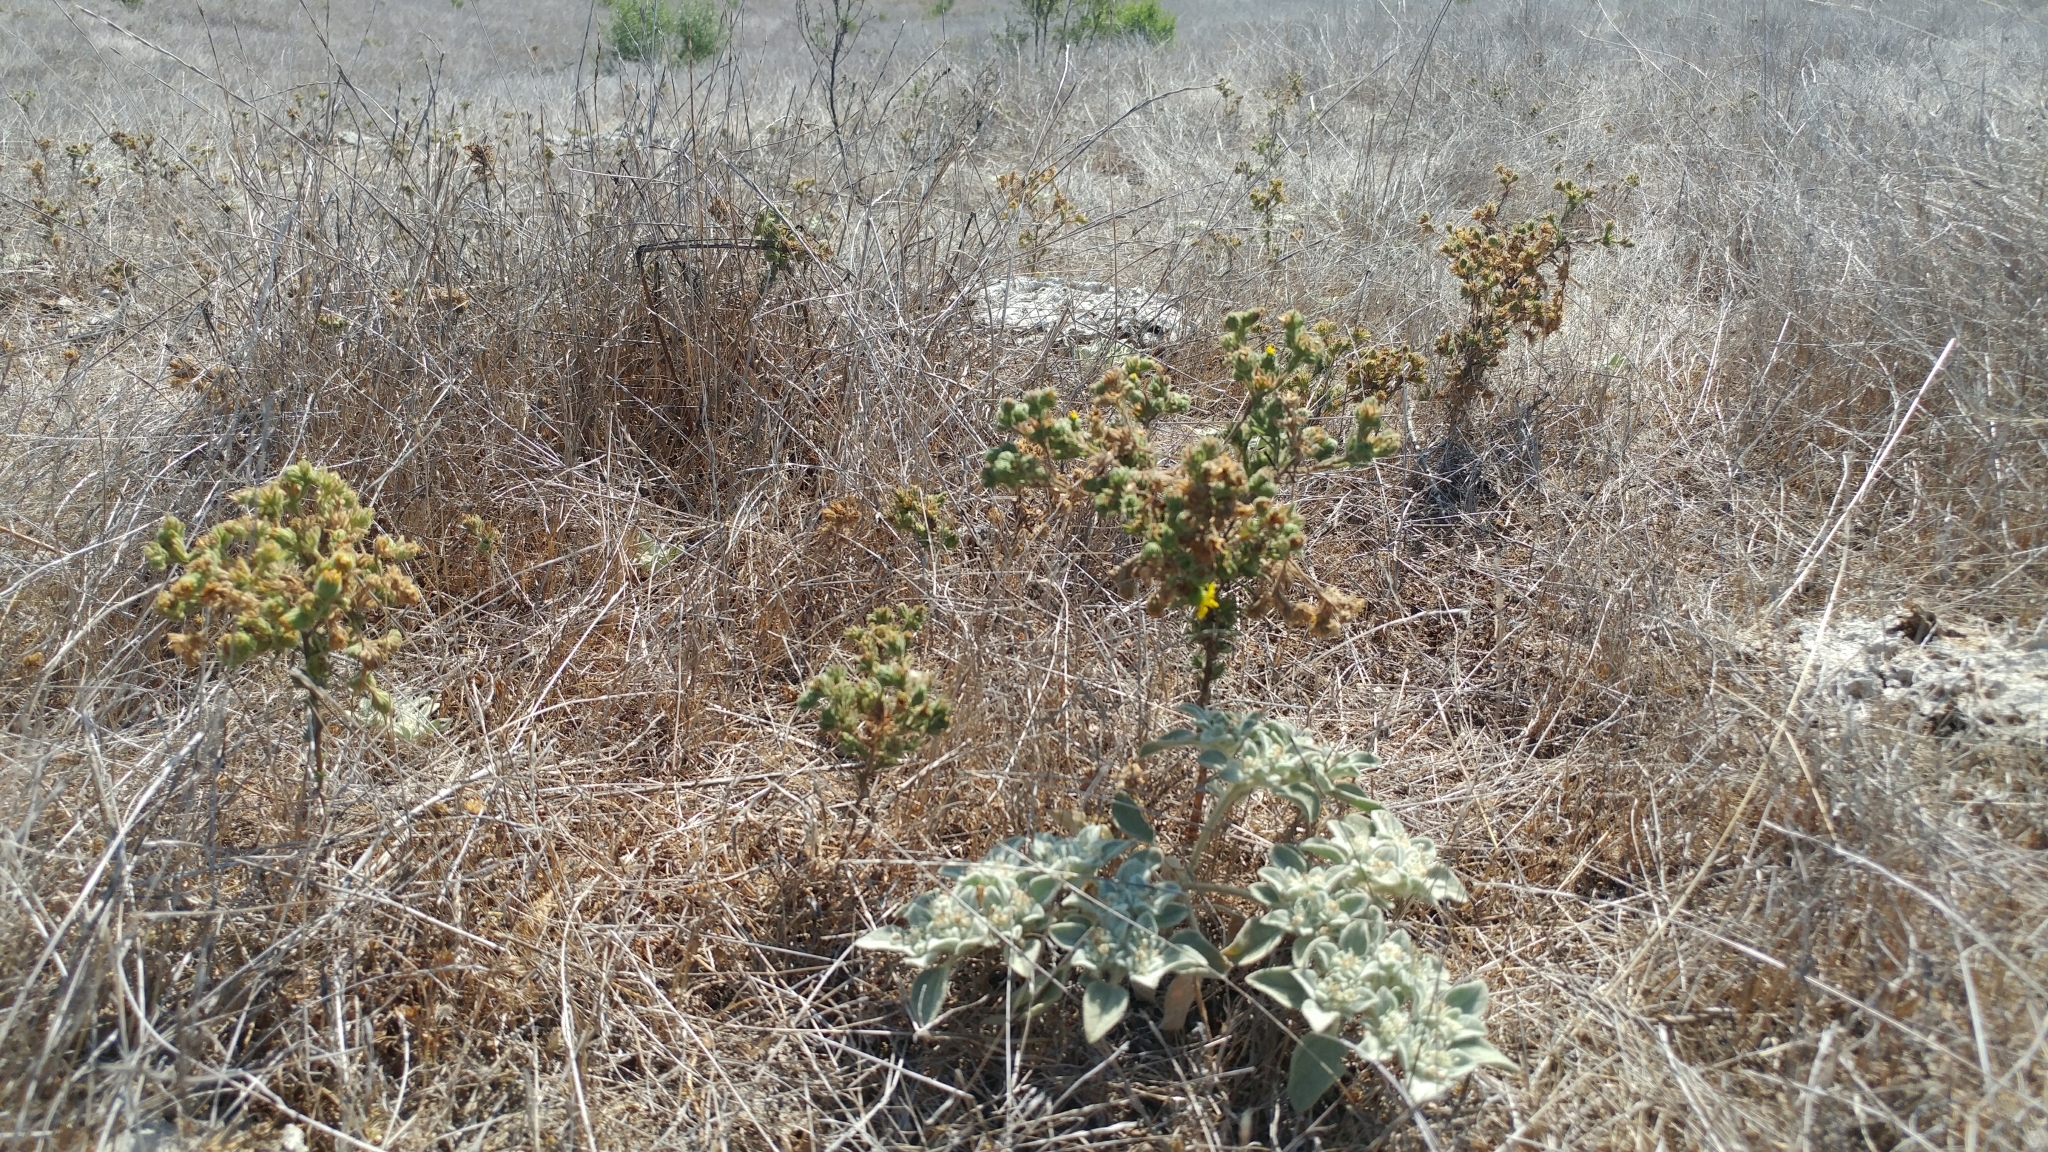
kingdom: Plantae
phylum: Tracheophyta
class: Magnoliopsida
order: Asterales
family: Asteraceae
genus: Deinandra
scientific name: Deinandra increscens
